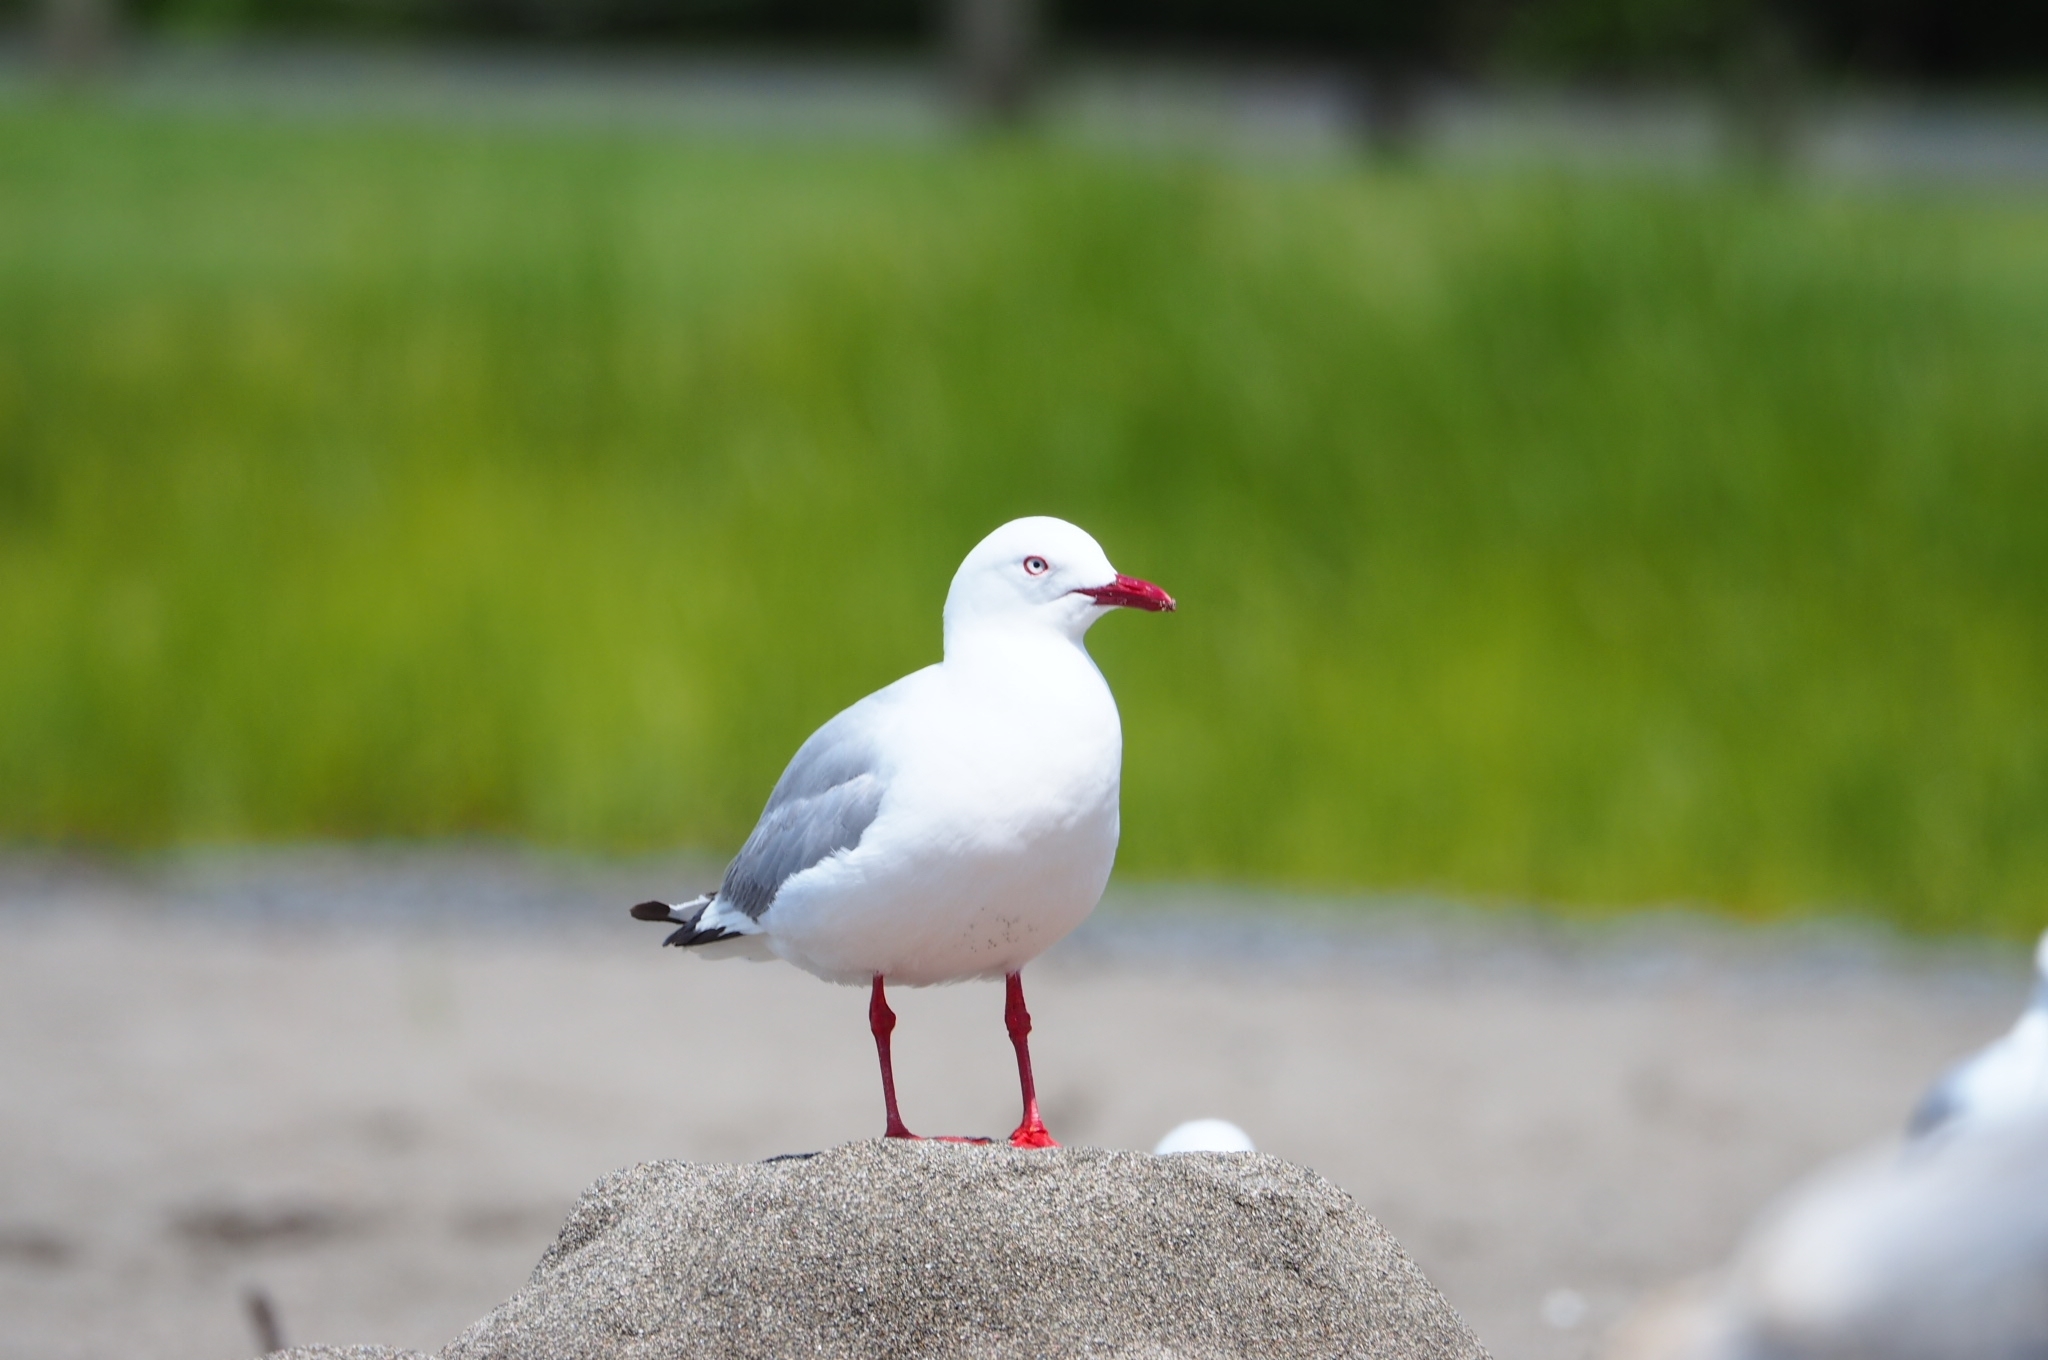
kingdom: Animalia
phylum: Chordata
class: Aves
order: Charadriiformes
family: Laridae
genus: Chroicocephalus
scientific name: Chroicocephalus novaehollandiae
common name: Silver gull
